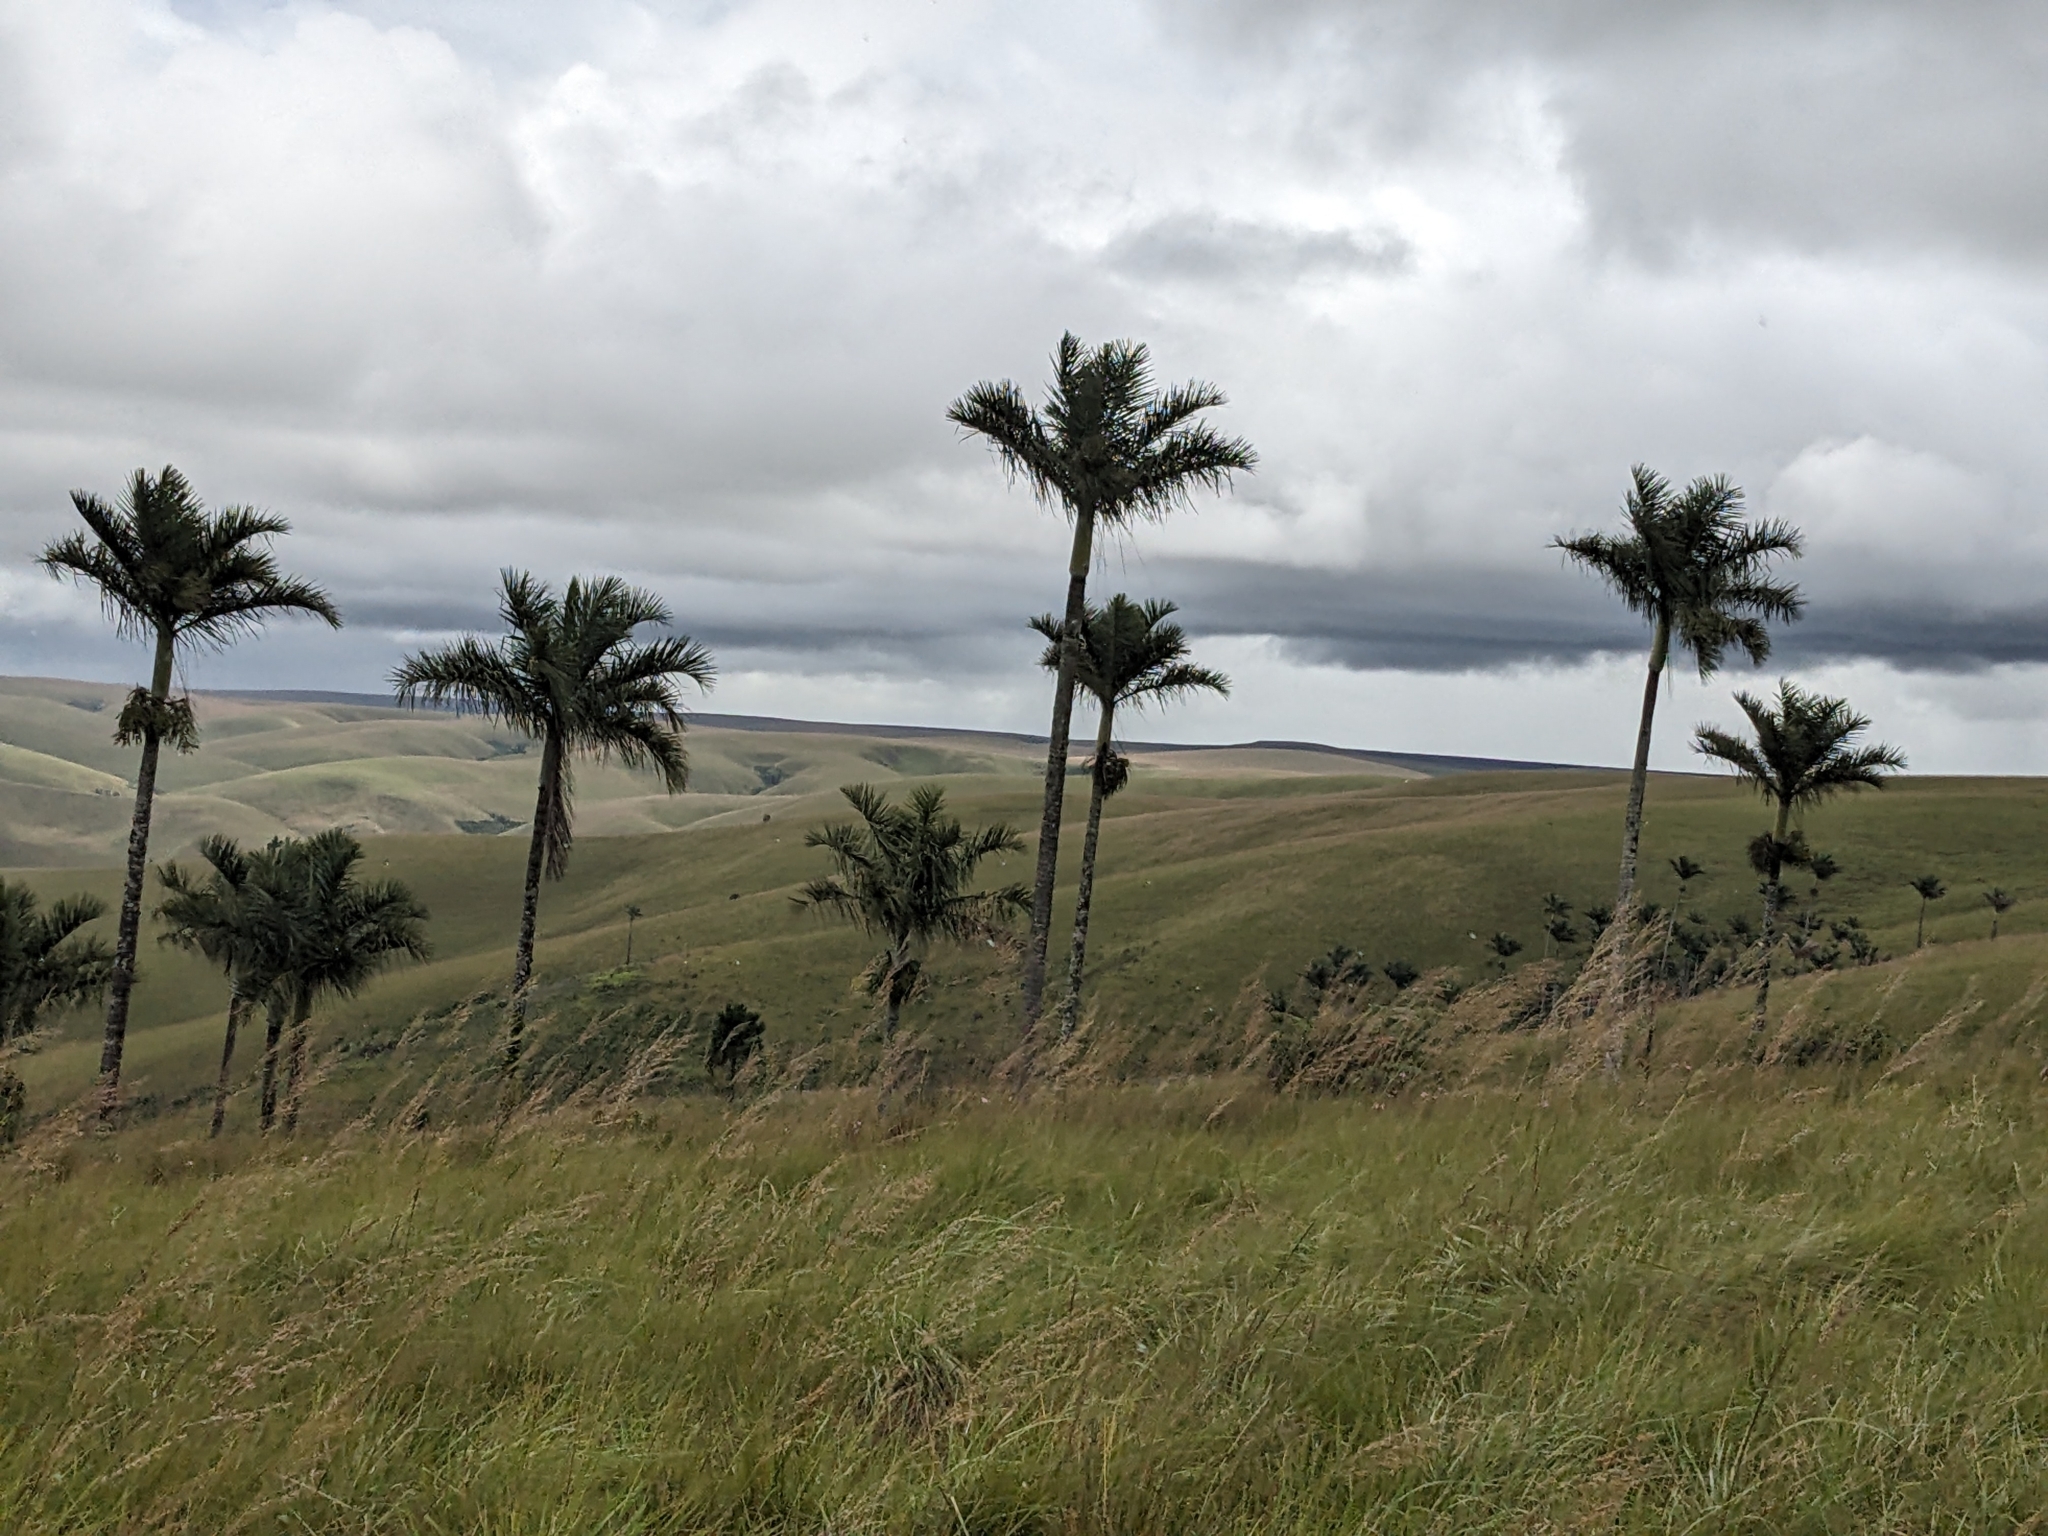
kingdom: Plantae
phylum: Tracheophyta
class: Liliopsida
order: Arecales
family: Arecaceae
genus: Dypsis
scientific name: Dypsis decipiens
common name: Manambe palm
